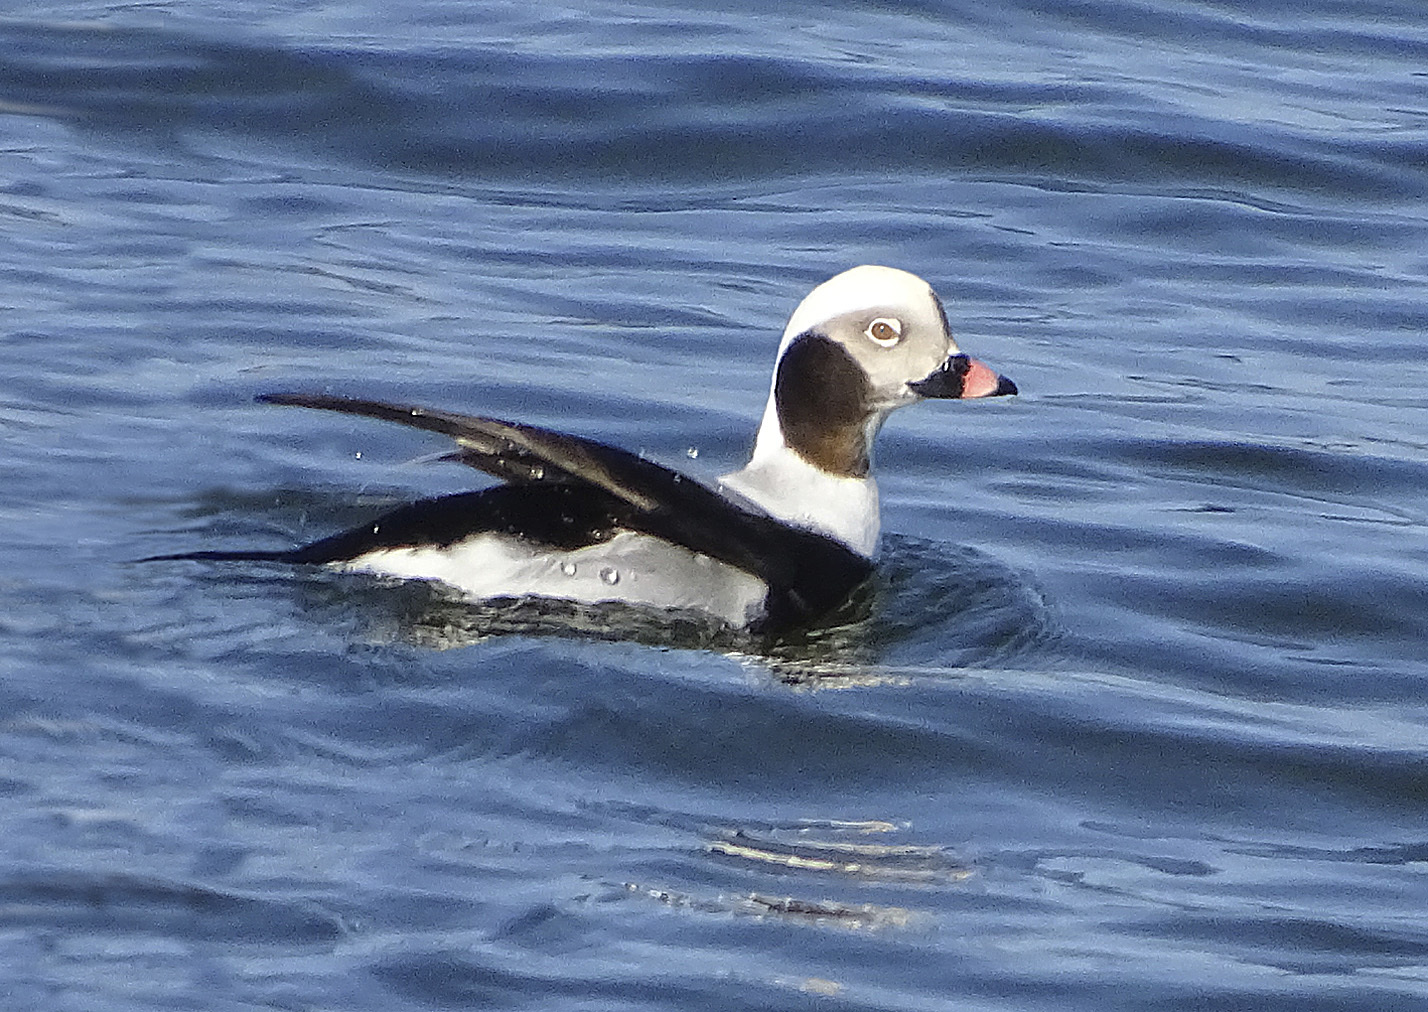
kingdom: Animalia
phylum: Chordata
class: Aves
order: Anseriformes
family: Anatidae
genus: Clangula
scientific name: Clangula hyemalis
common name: Long-tailed duck
